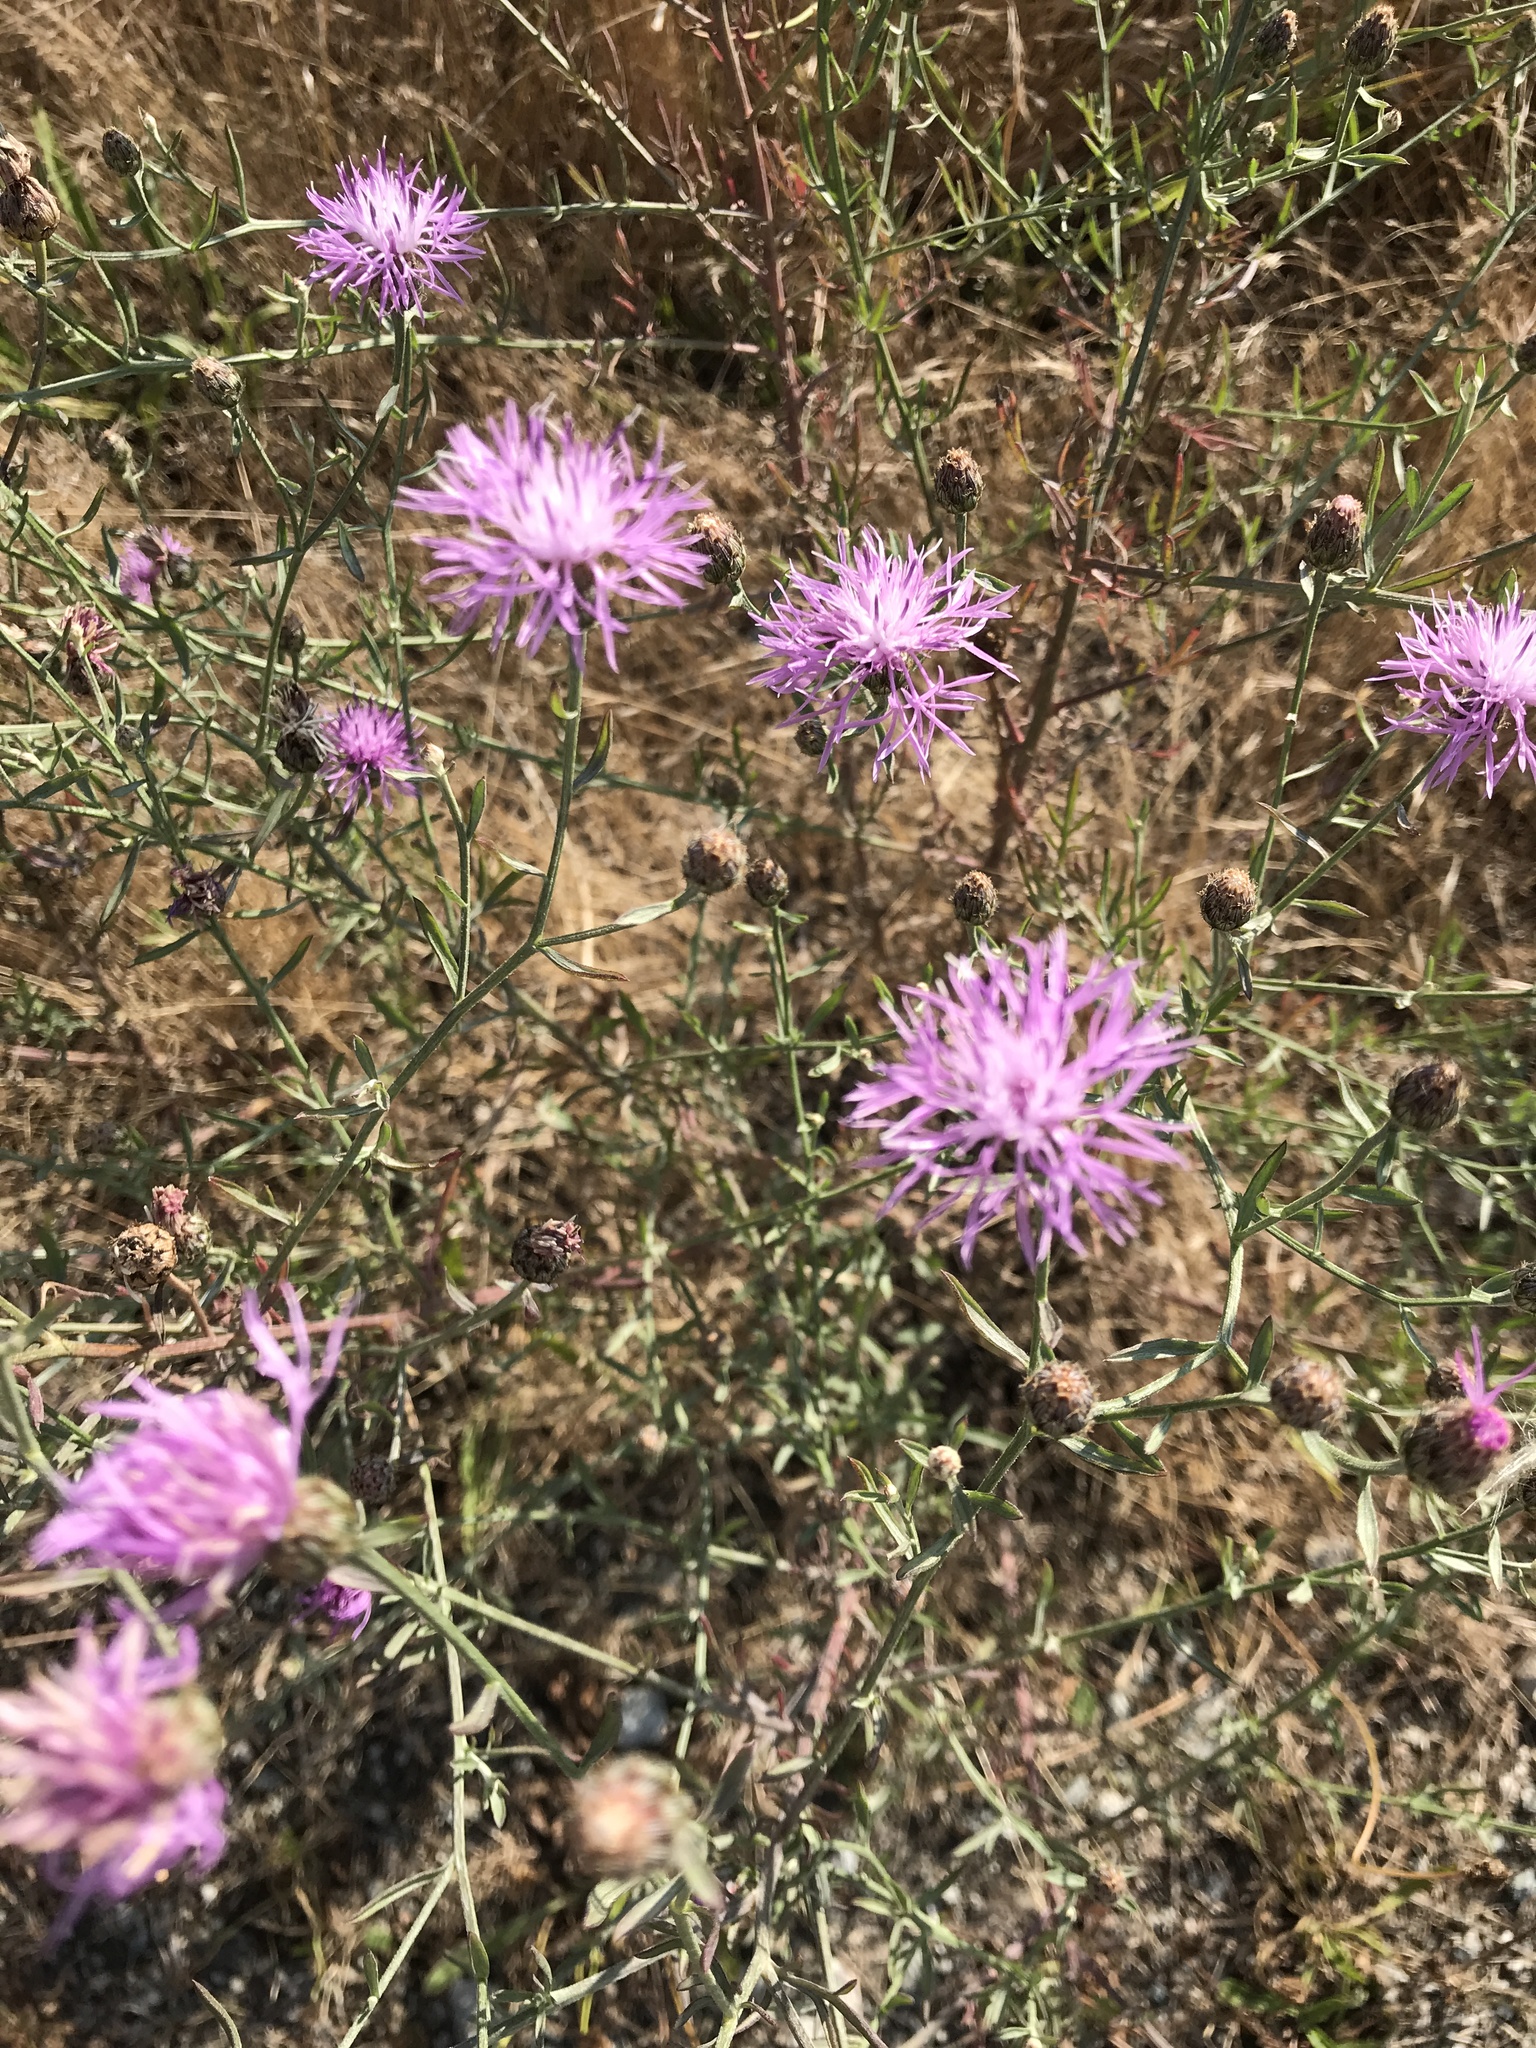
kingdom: Plantae
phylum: Tracheophyta
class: Magnoliopsida
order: Asterales
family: Asteraceae
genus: Centaurea
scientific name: Centaurea stoebe
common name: Spotted knapweed
